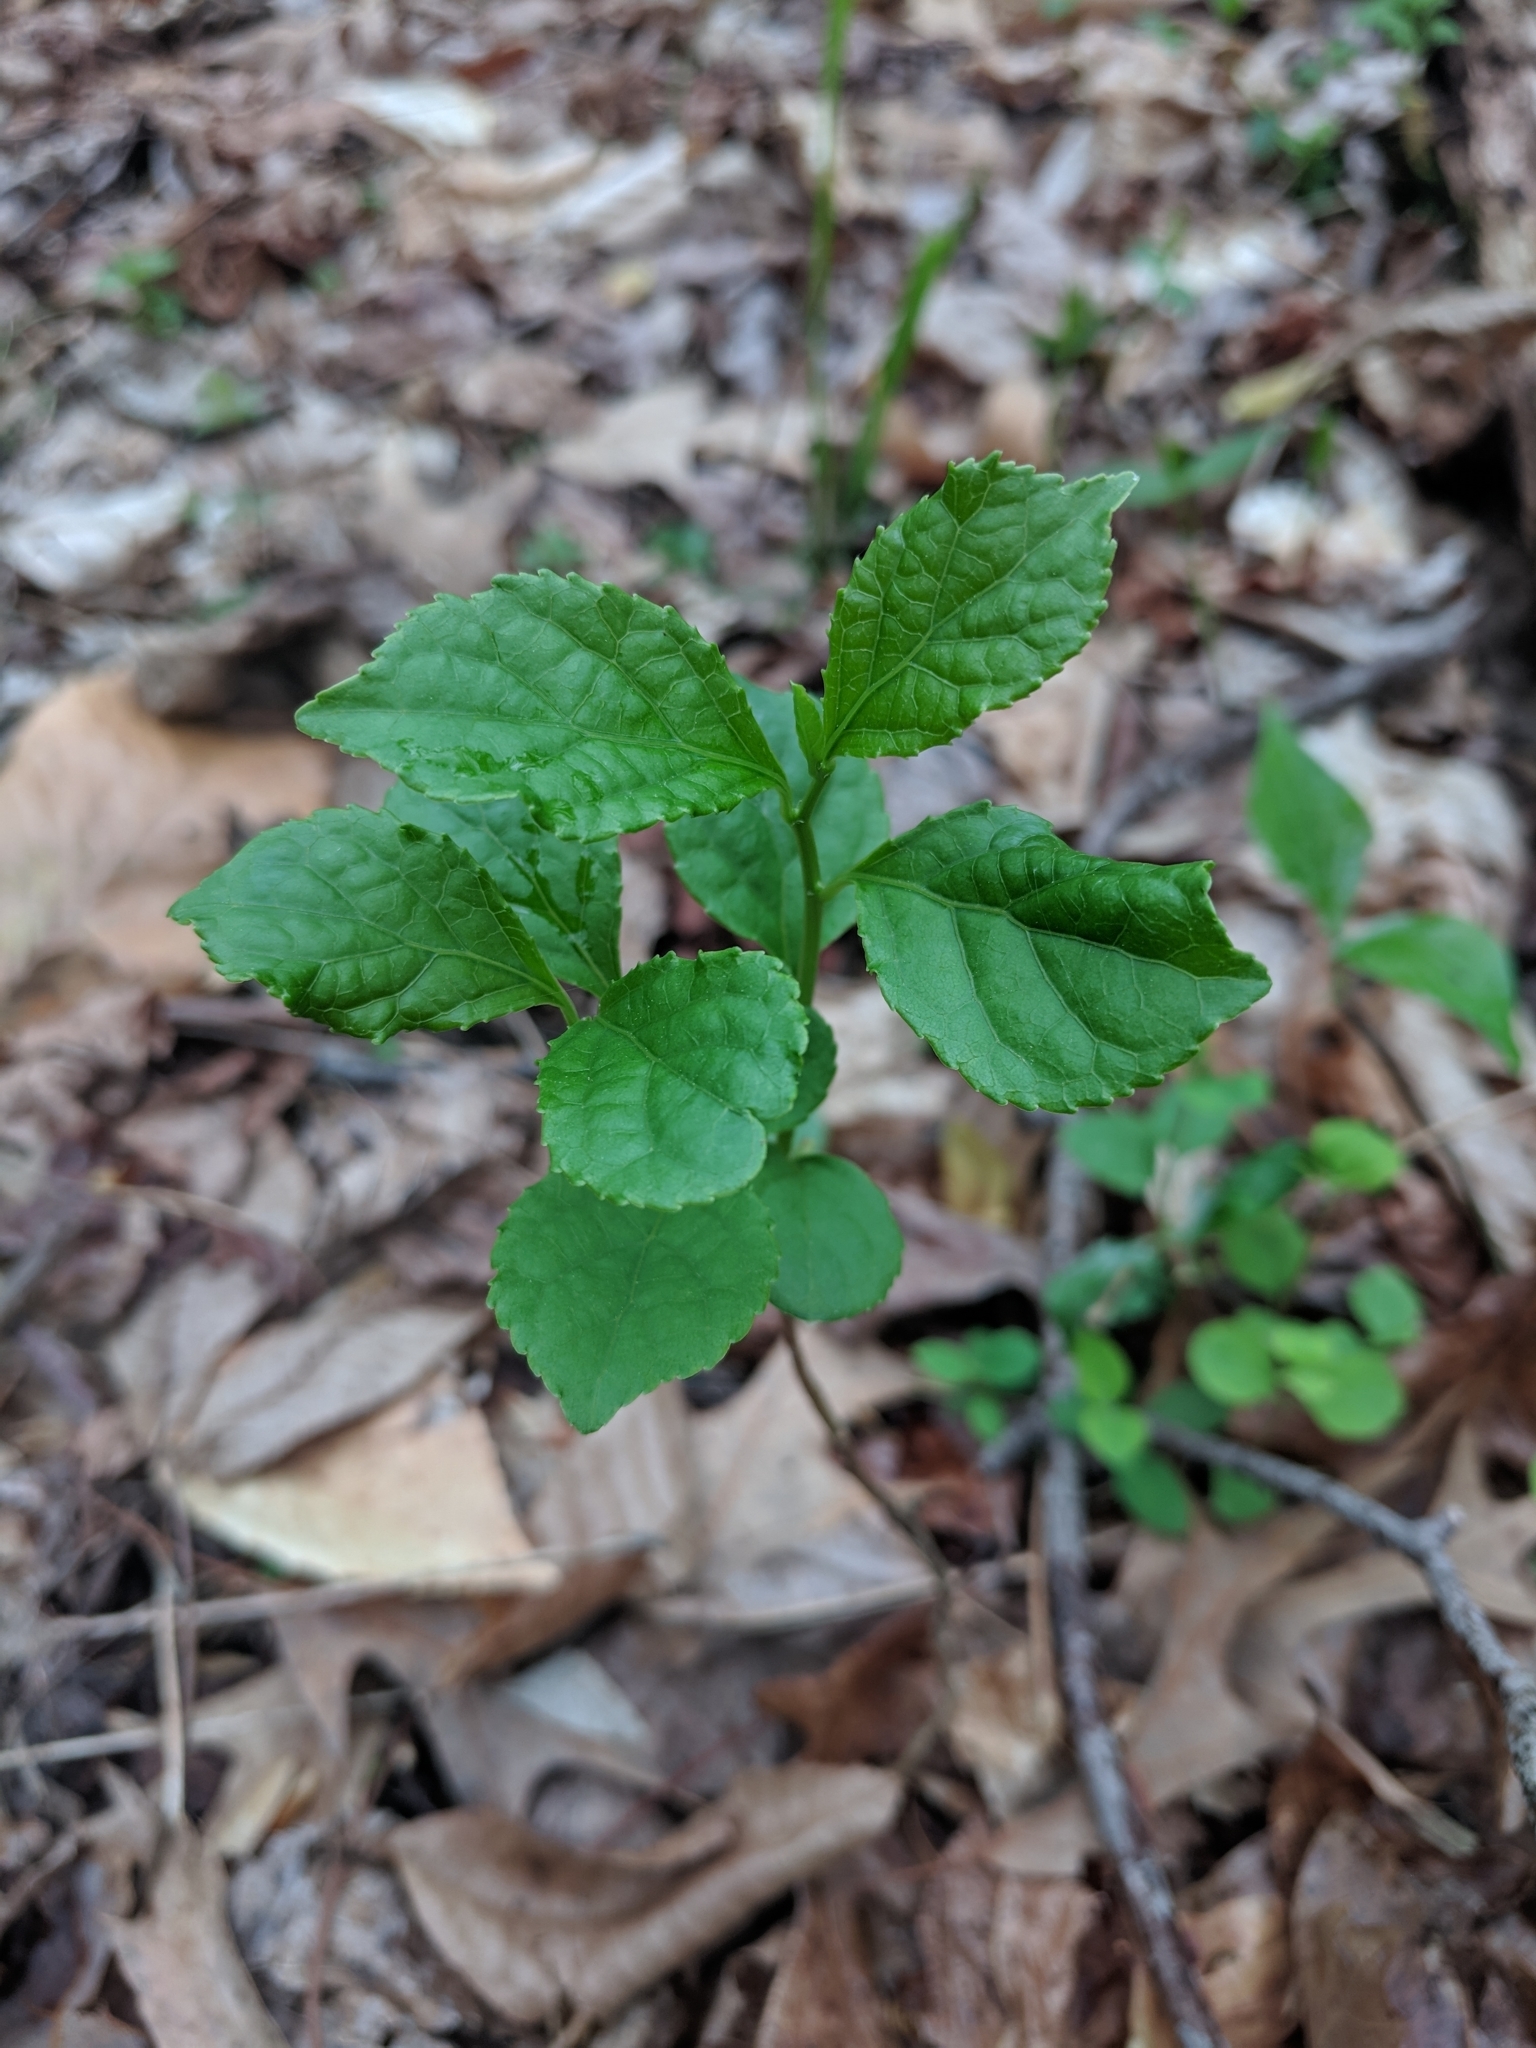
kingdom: Plantae
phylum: Tracheophyta
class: Magnoliopsida
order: Celastrales
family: Celastraceae
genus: Celastrus
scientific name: Celastrus orbiculatus
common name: Oriental bittersweet
